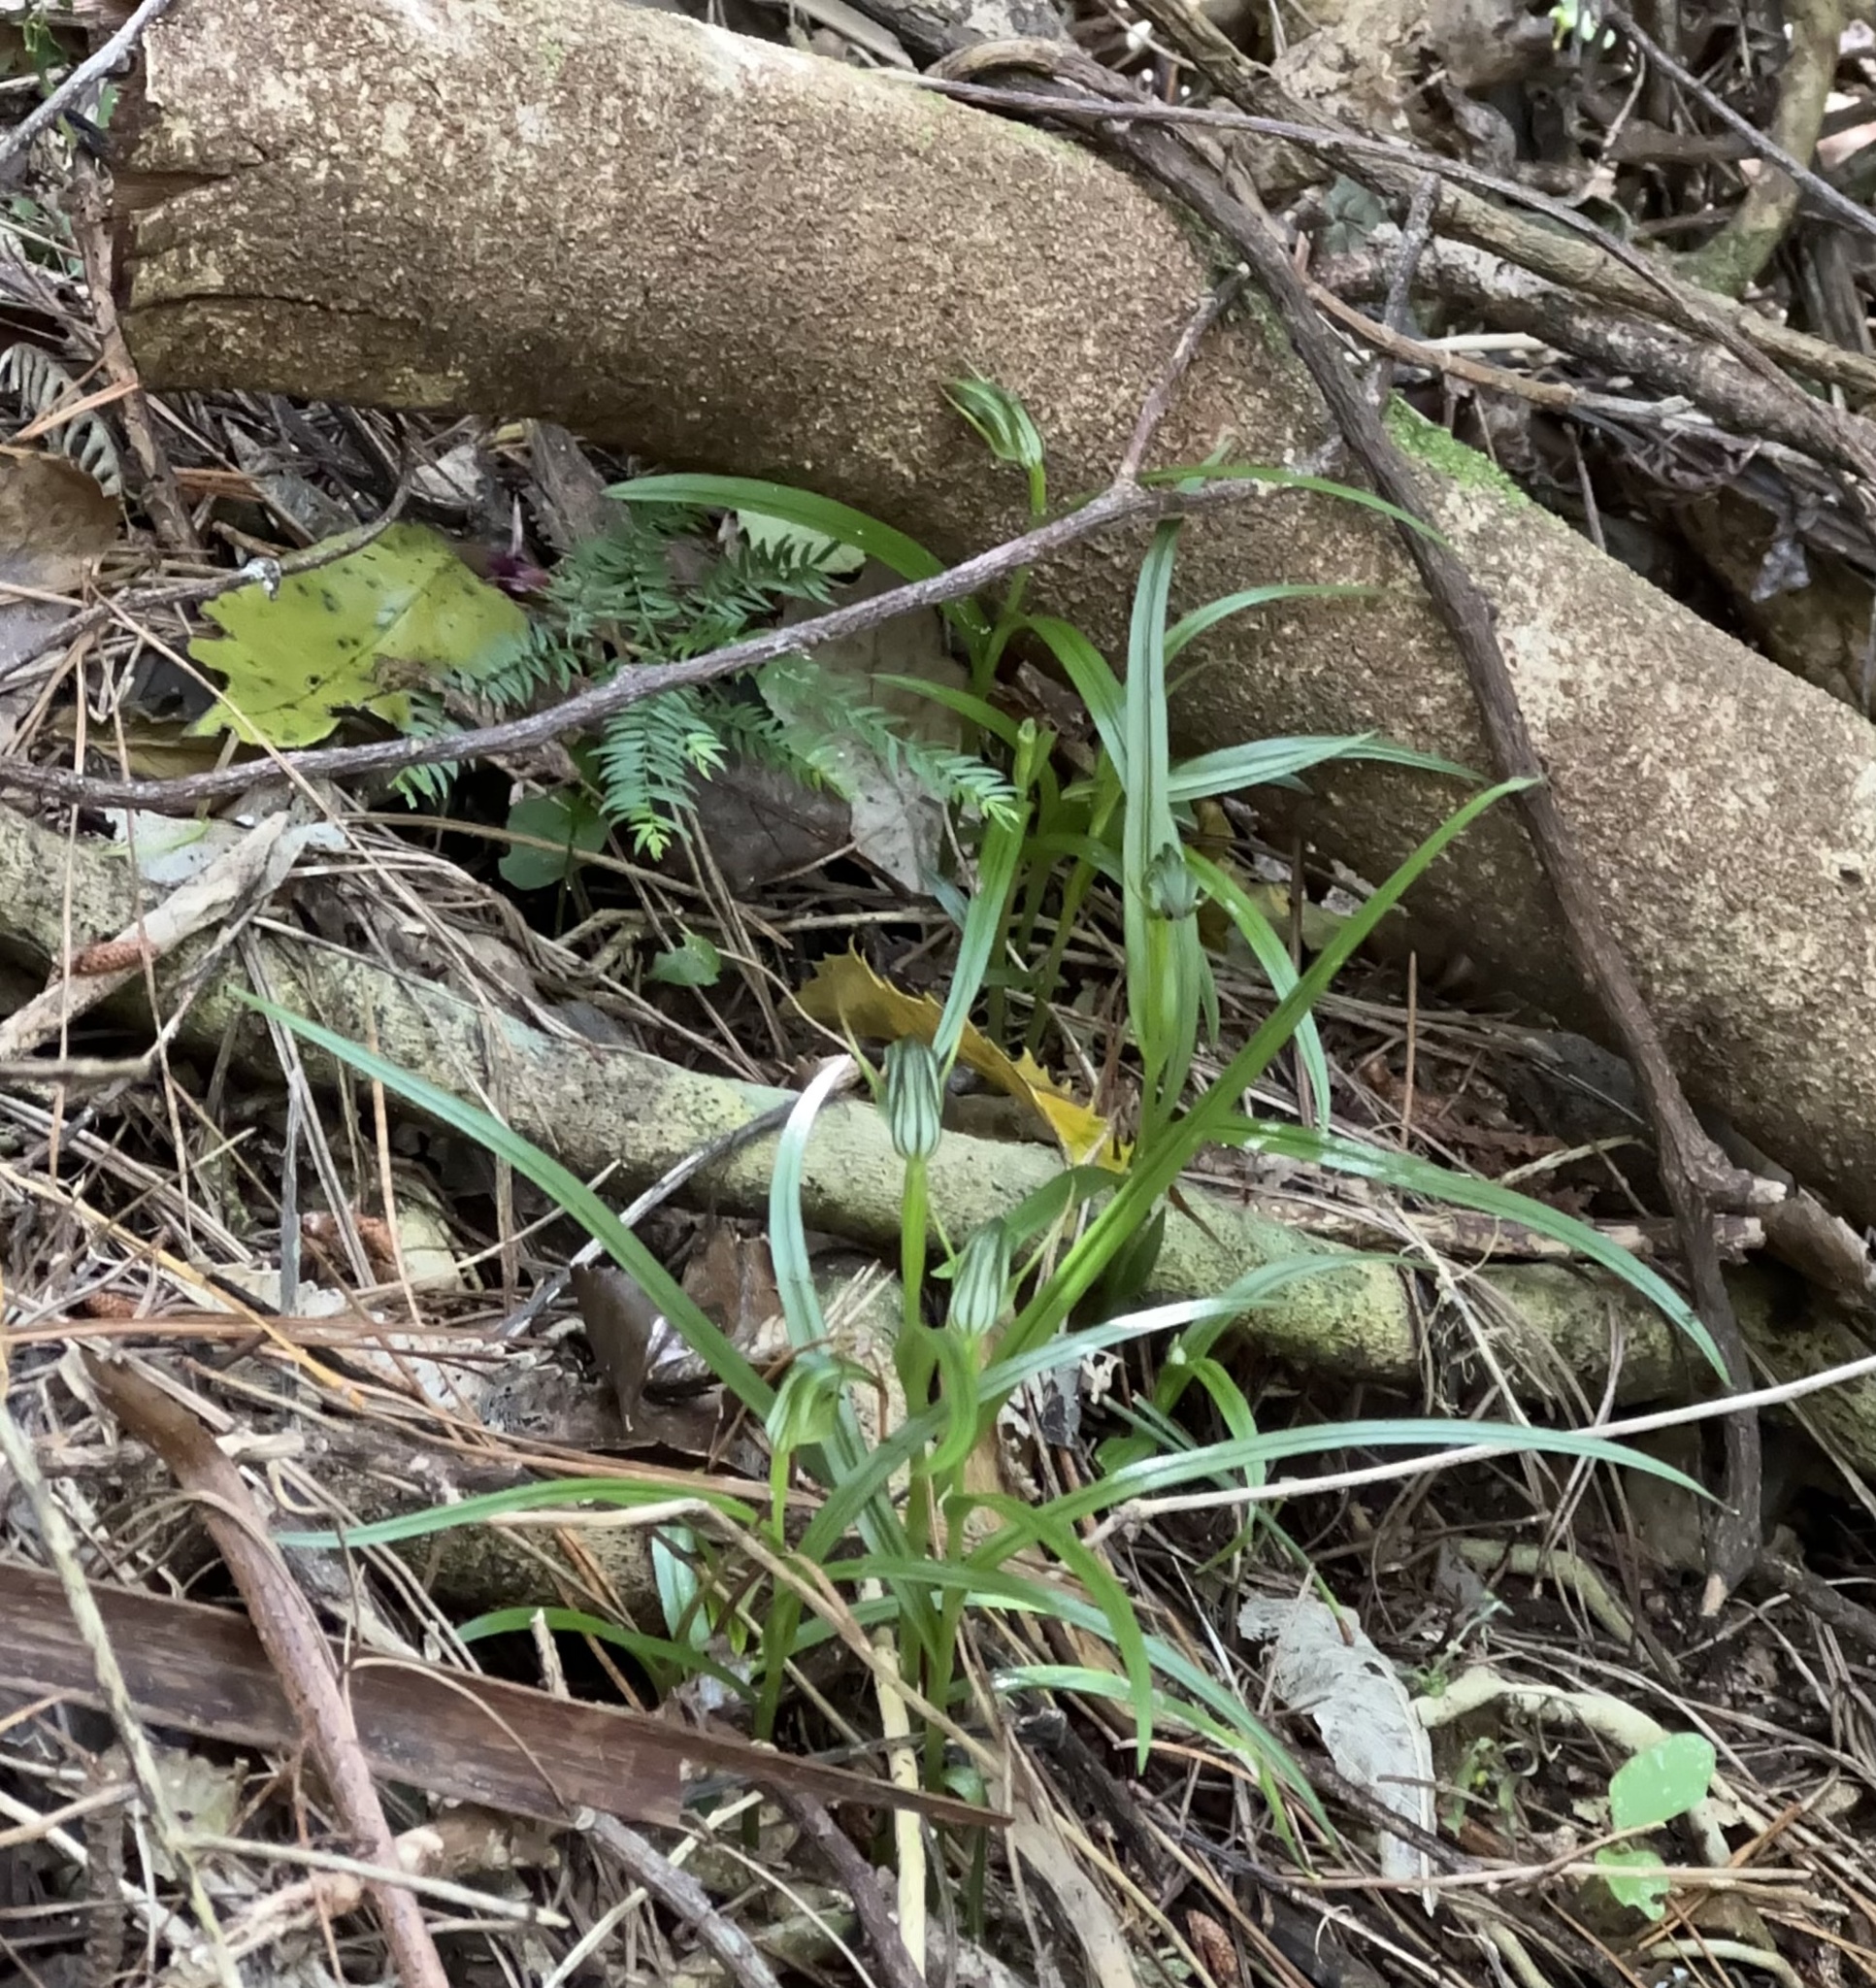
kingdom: Plantae
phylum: Tracheophyta
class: Liliopsida
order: Asparagales
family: Orchidaceae
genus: Pterostylis
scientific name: Pterostylis graminea
